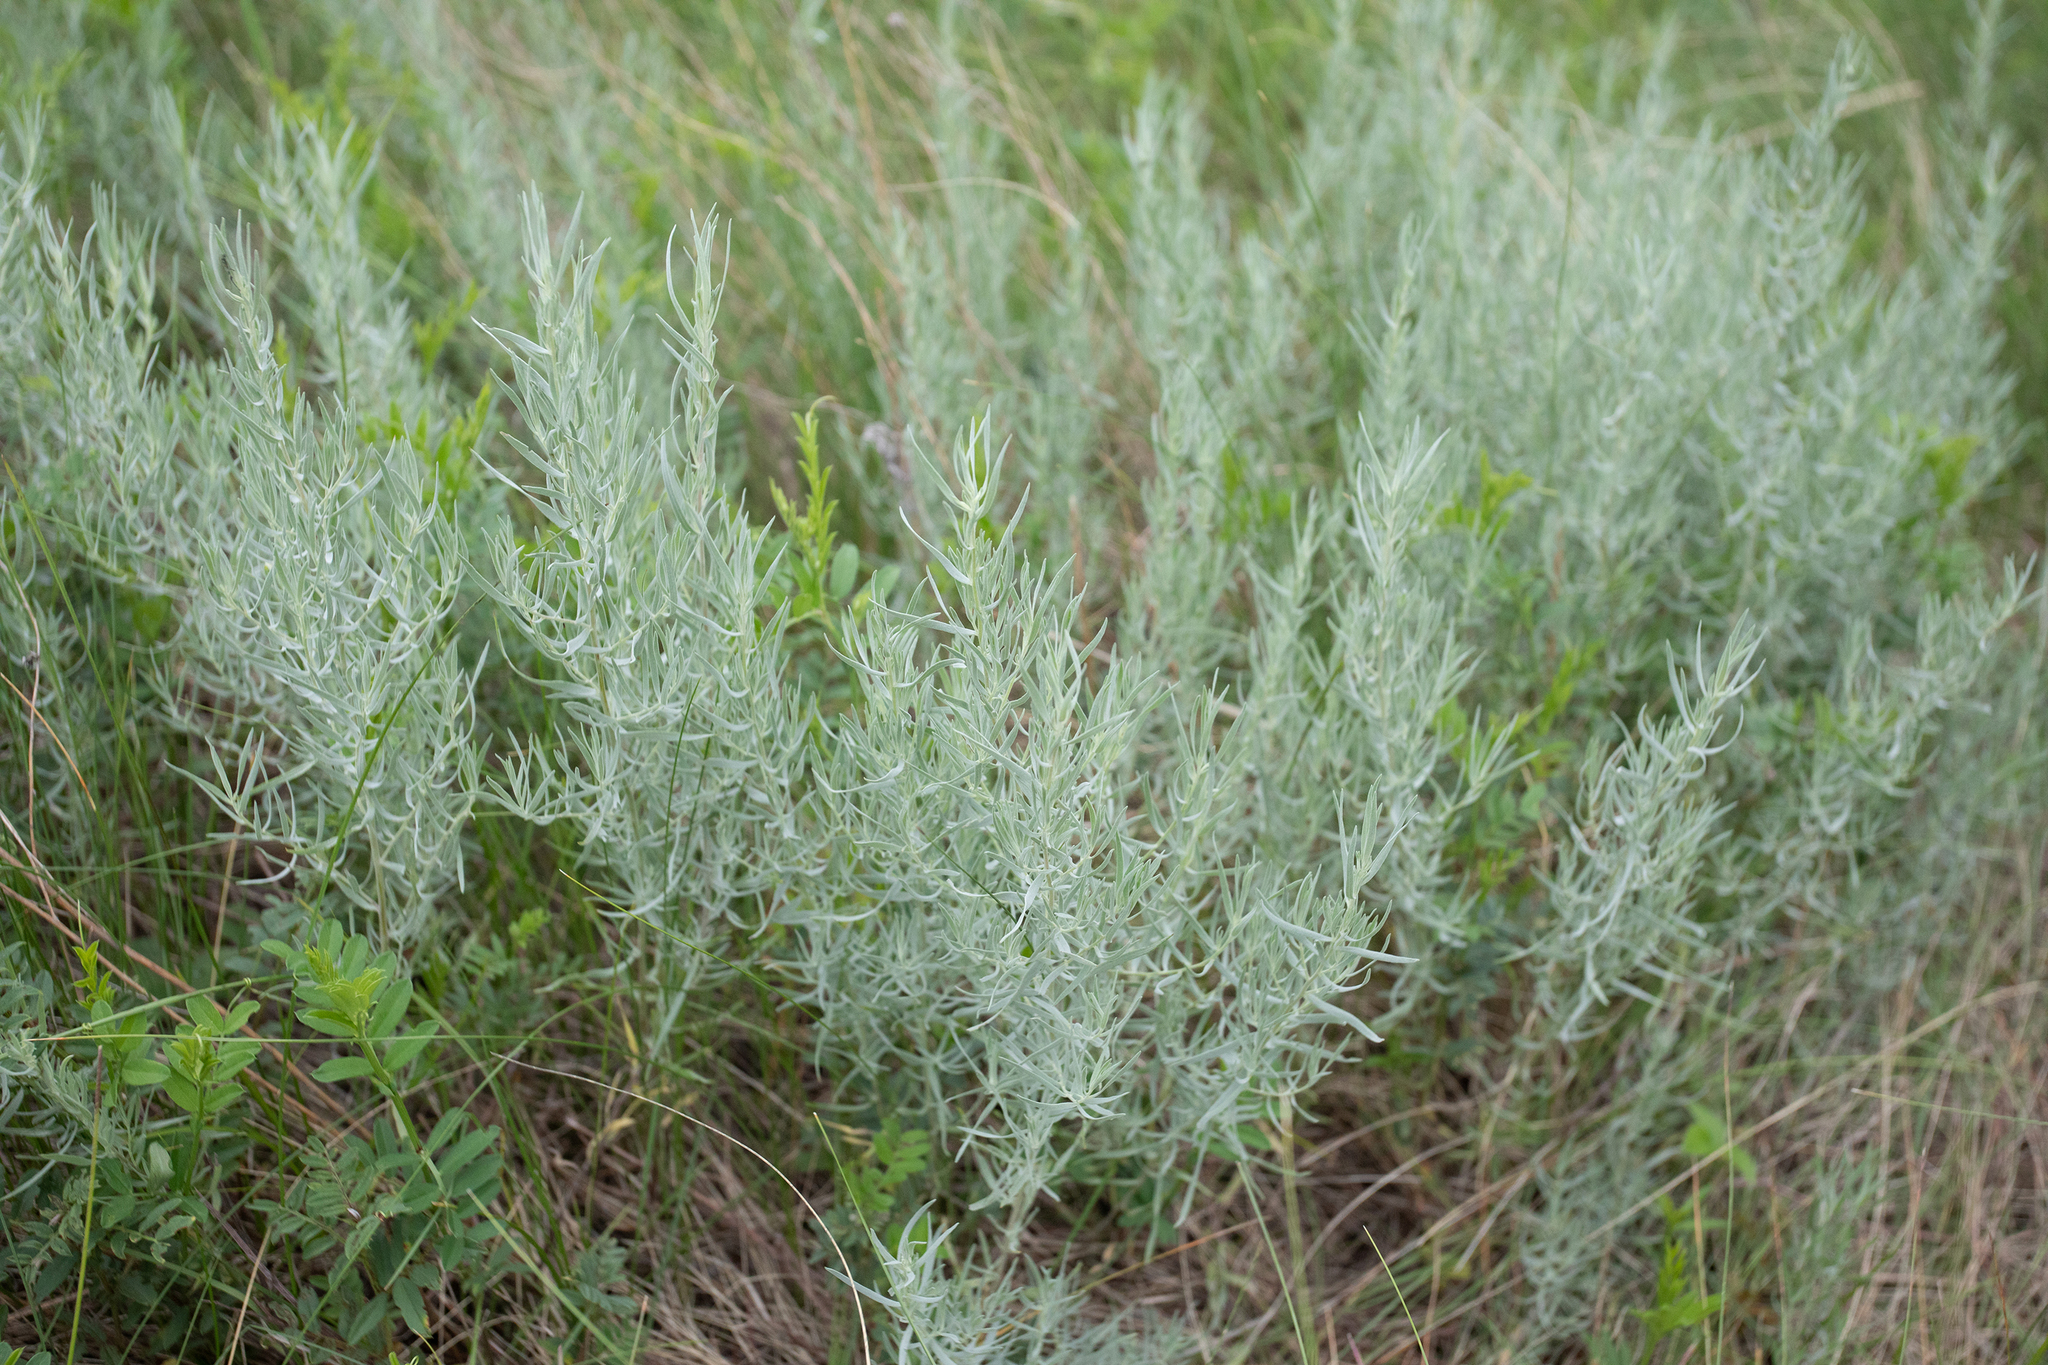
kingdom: Plantae
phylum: Tracheophyta
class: Magnoliopsida
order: Asterales
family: Asteraceae
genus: Artemisia
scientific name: Artemisia glauca
